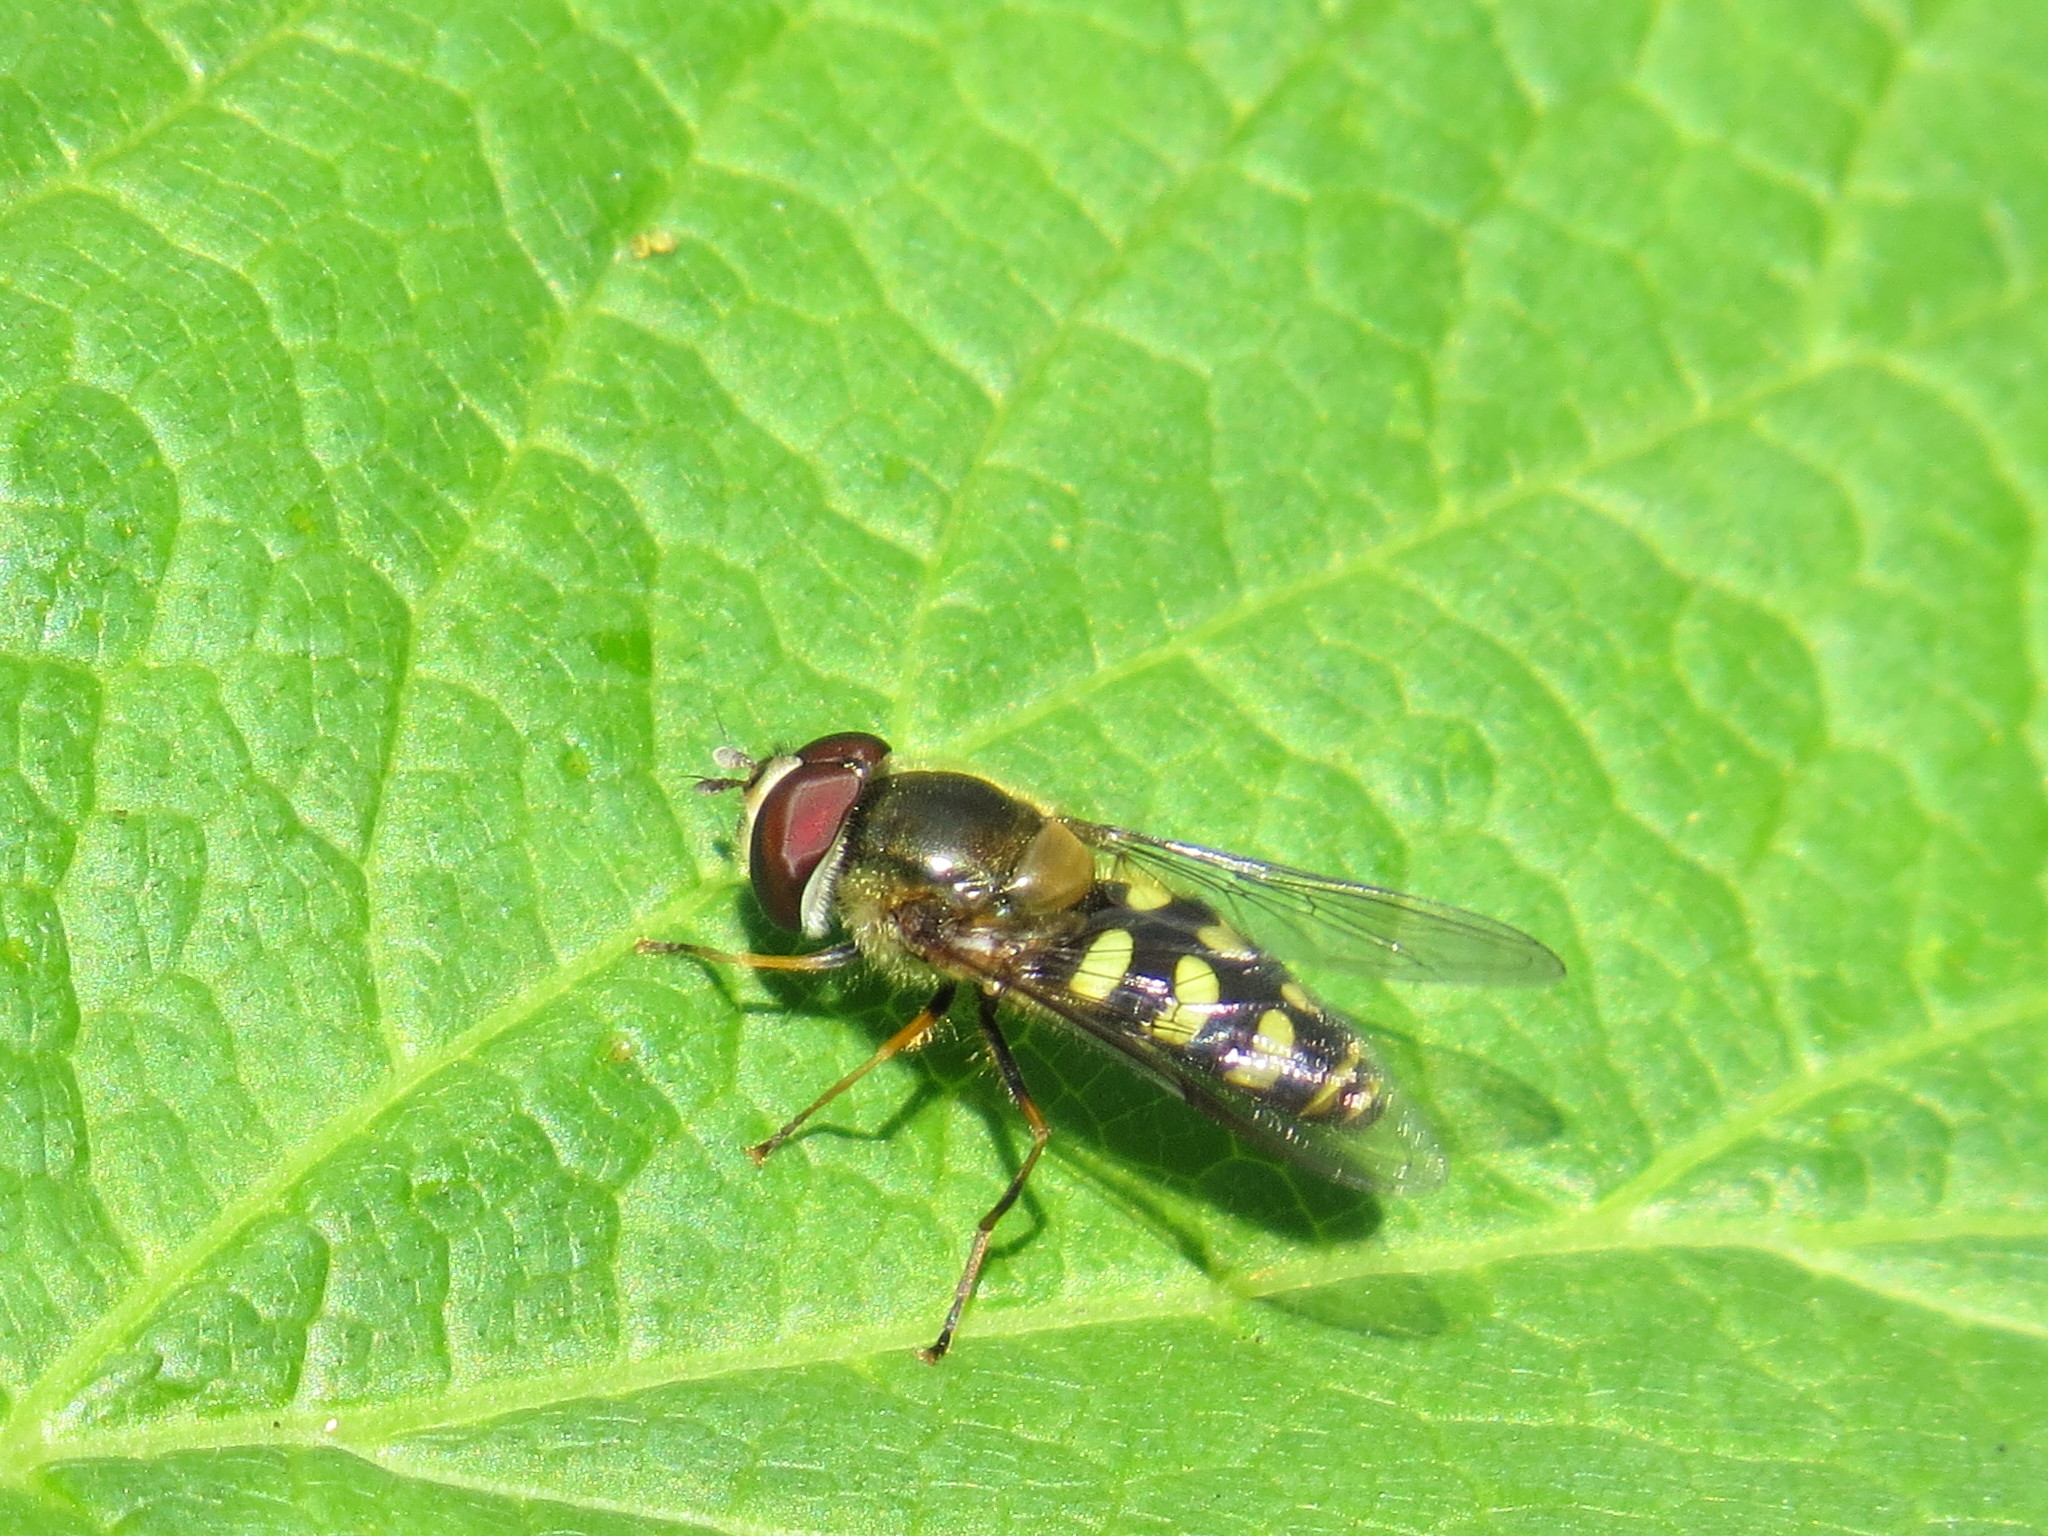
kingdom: Animalia
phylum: Arthropoda
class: Insecta
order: Diptera
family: Syrphidae
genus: Lapposyrphus
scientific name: Lapposyrphus lapponicus
